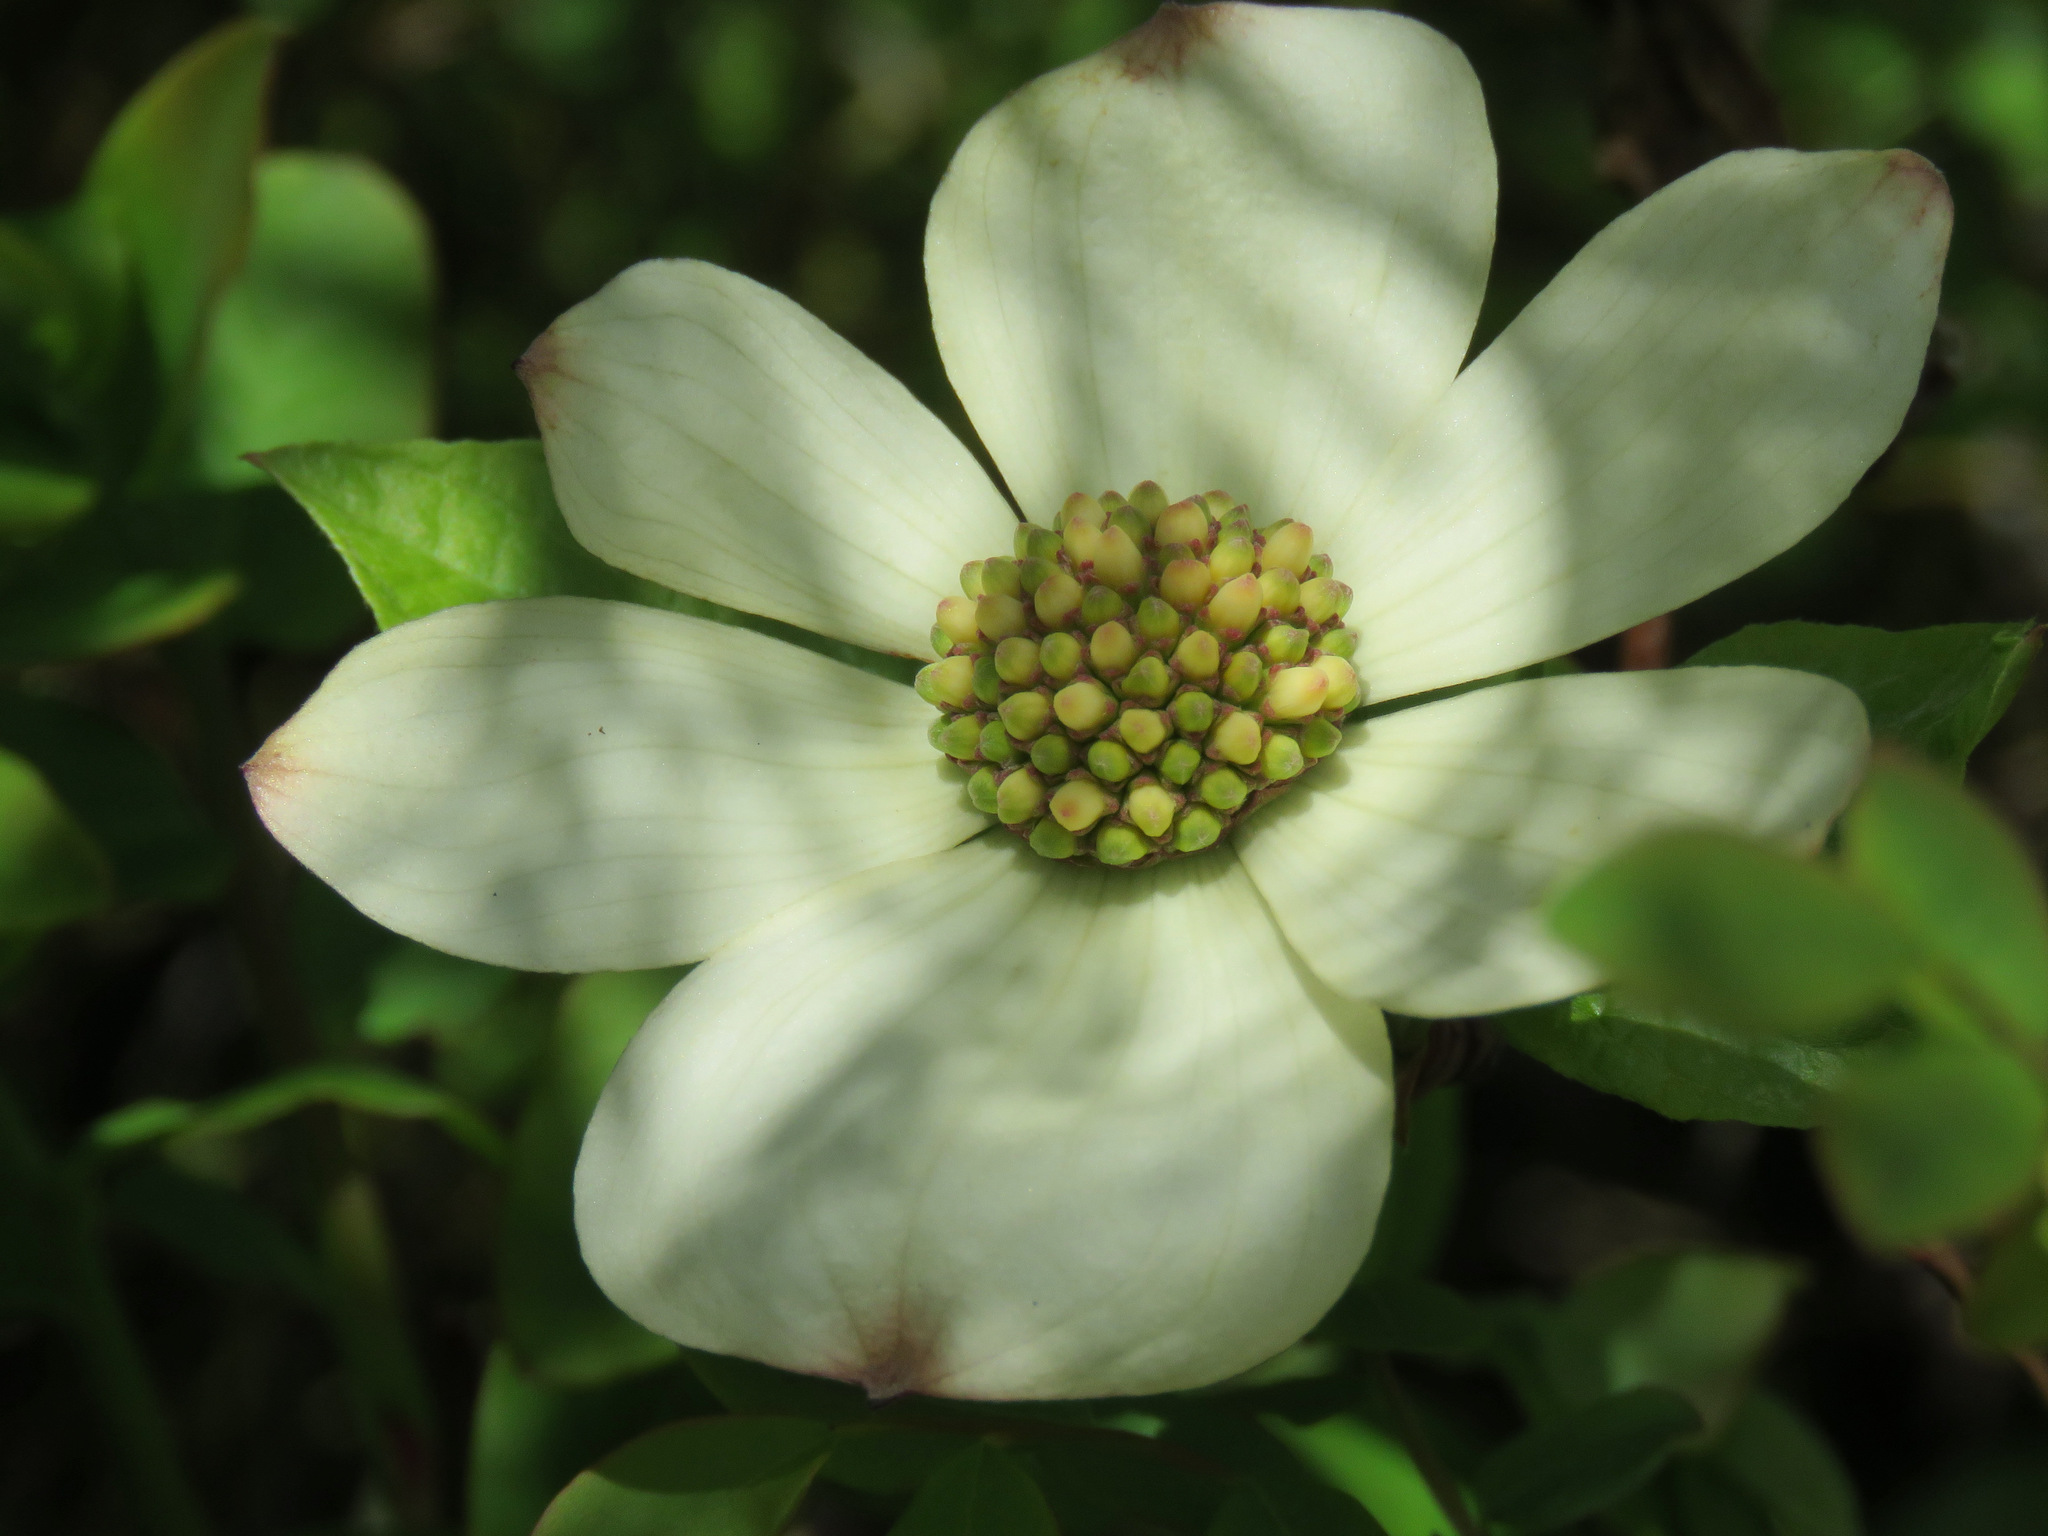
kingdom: Plantae
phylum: Tracheophyta
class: Magnoliopsida
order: Cornales
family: Cornaceae
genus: Cornus
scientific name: Cornus nuttallii
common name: Pacific dogwood
